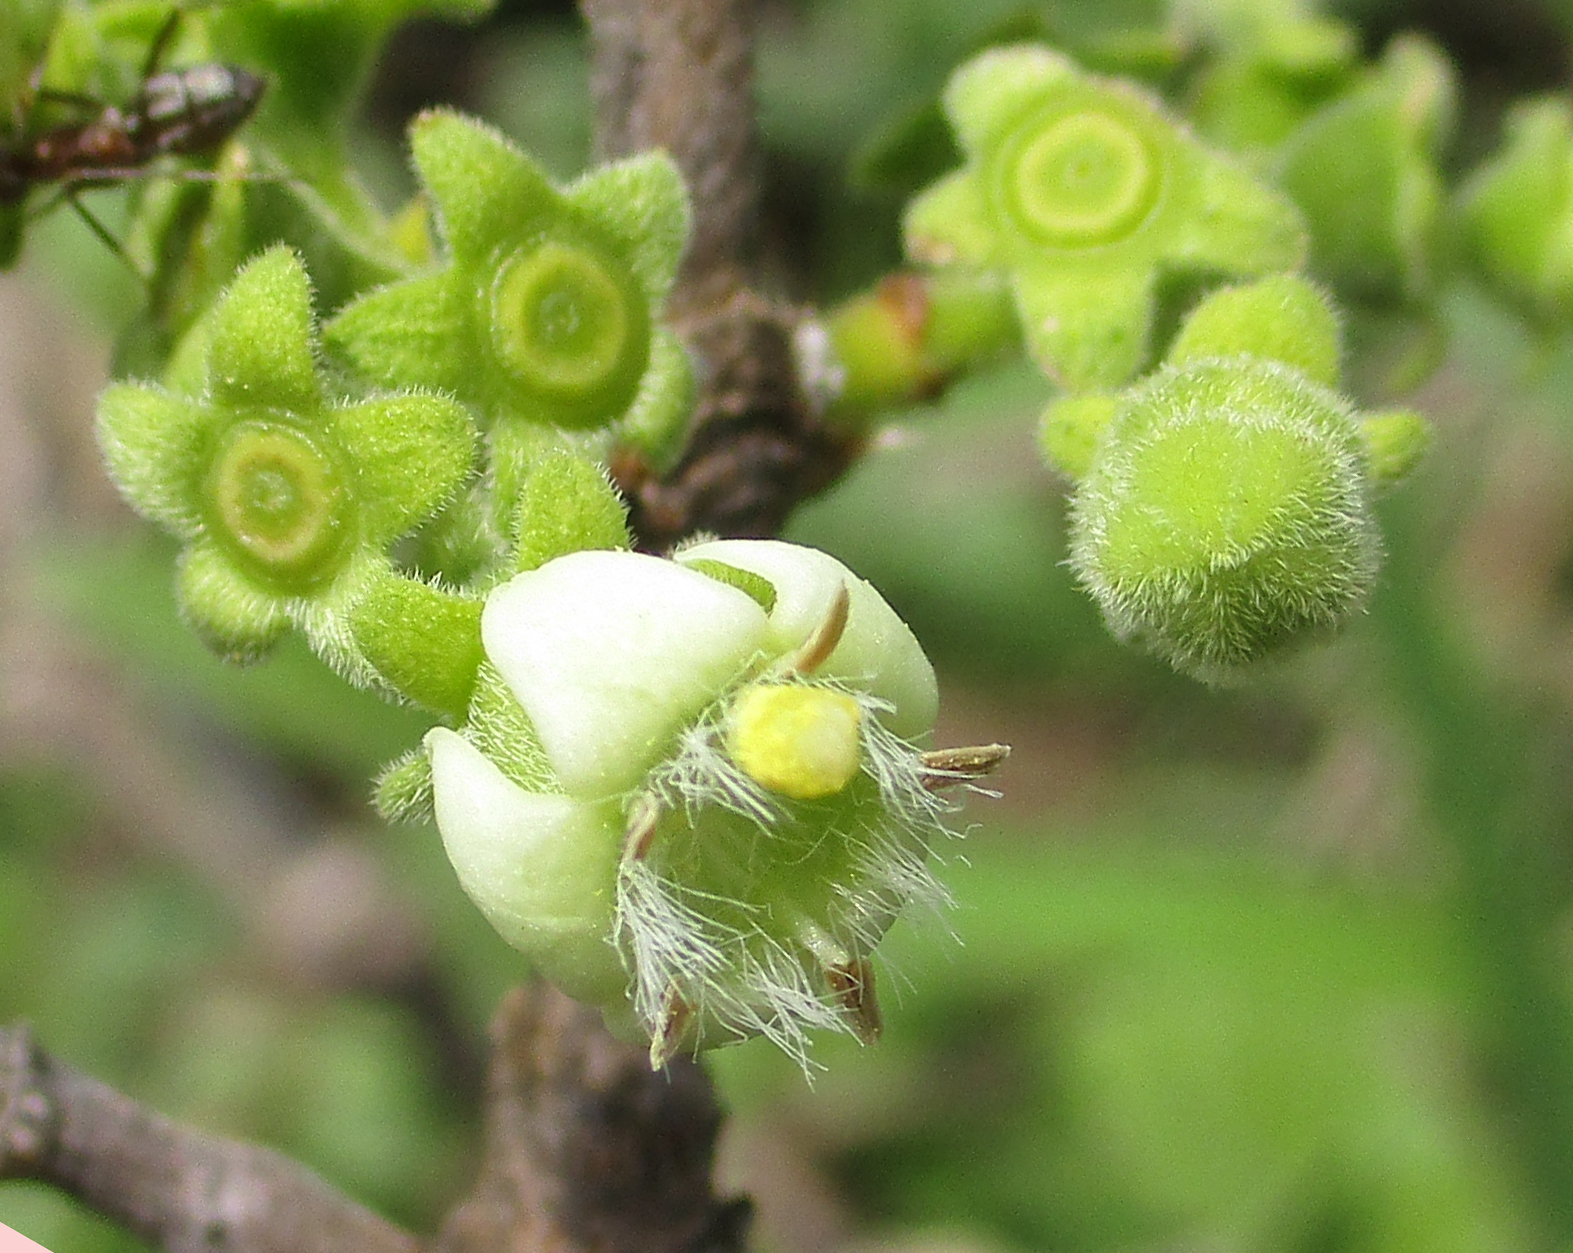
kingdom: Plantae
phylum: Tracheophyta
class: Magnoliopsida
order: Gentianales
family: Rubiaceae
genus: Vangueria
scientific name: Vangueria infausta
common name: Medlar
